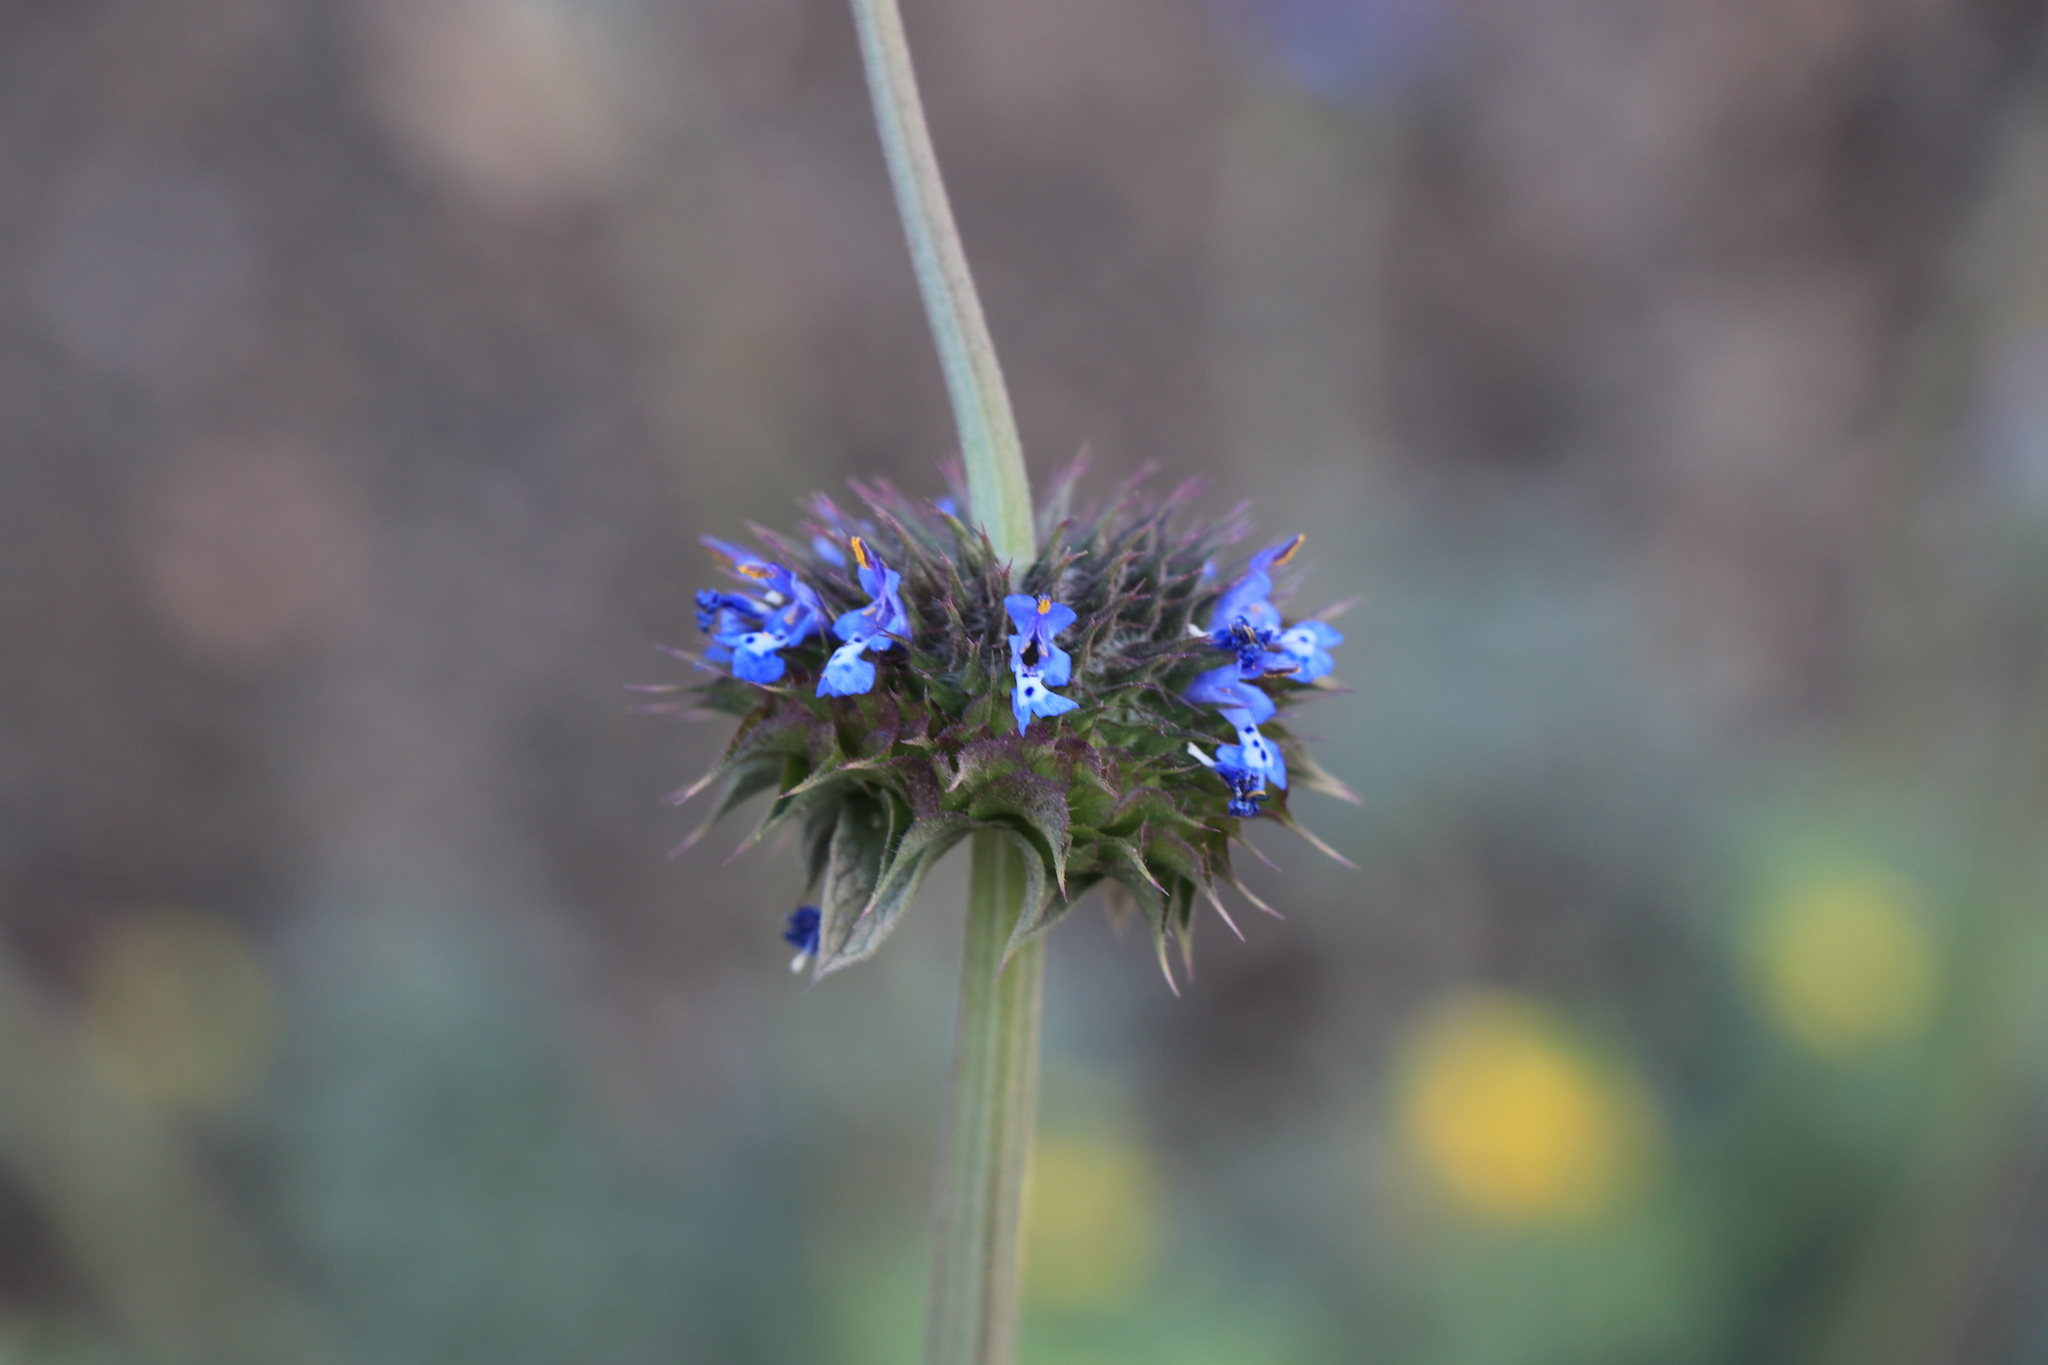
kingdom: Plantae
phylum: Tracheophyta
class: Magnoliopsida
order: Lamiales
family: Lamiaceae
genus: Salvia
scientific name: Salvia columbariae
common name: Chia
